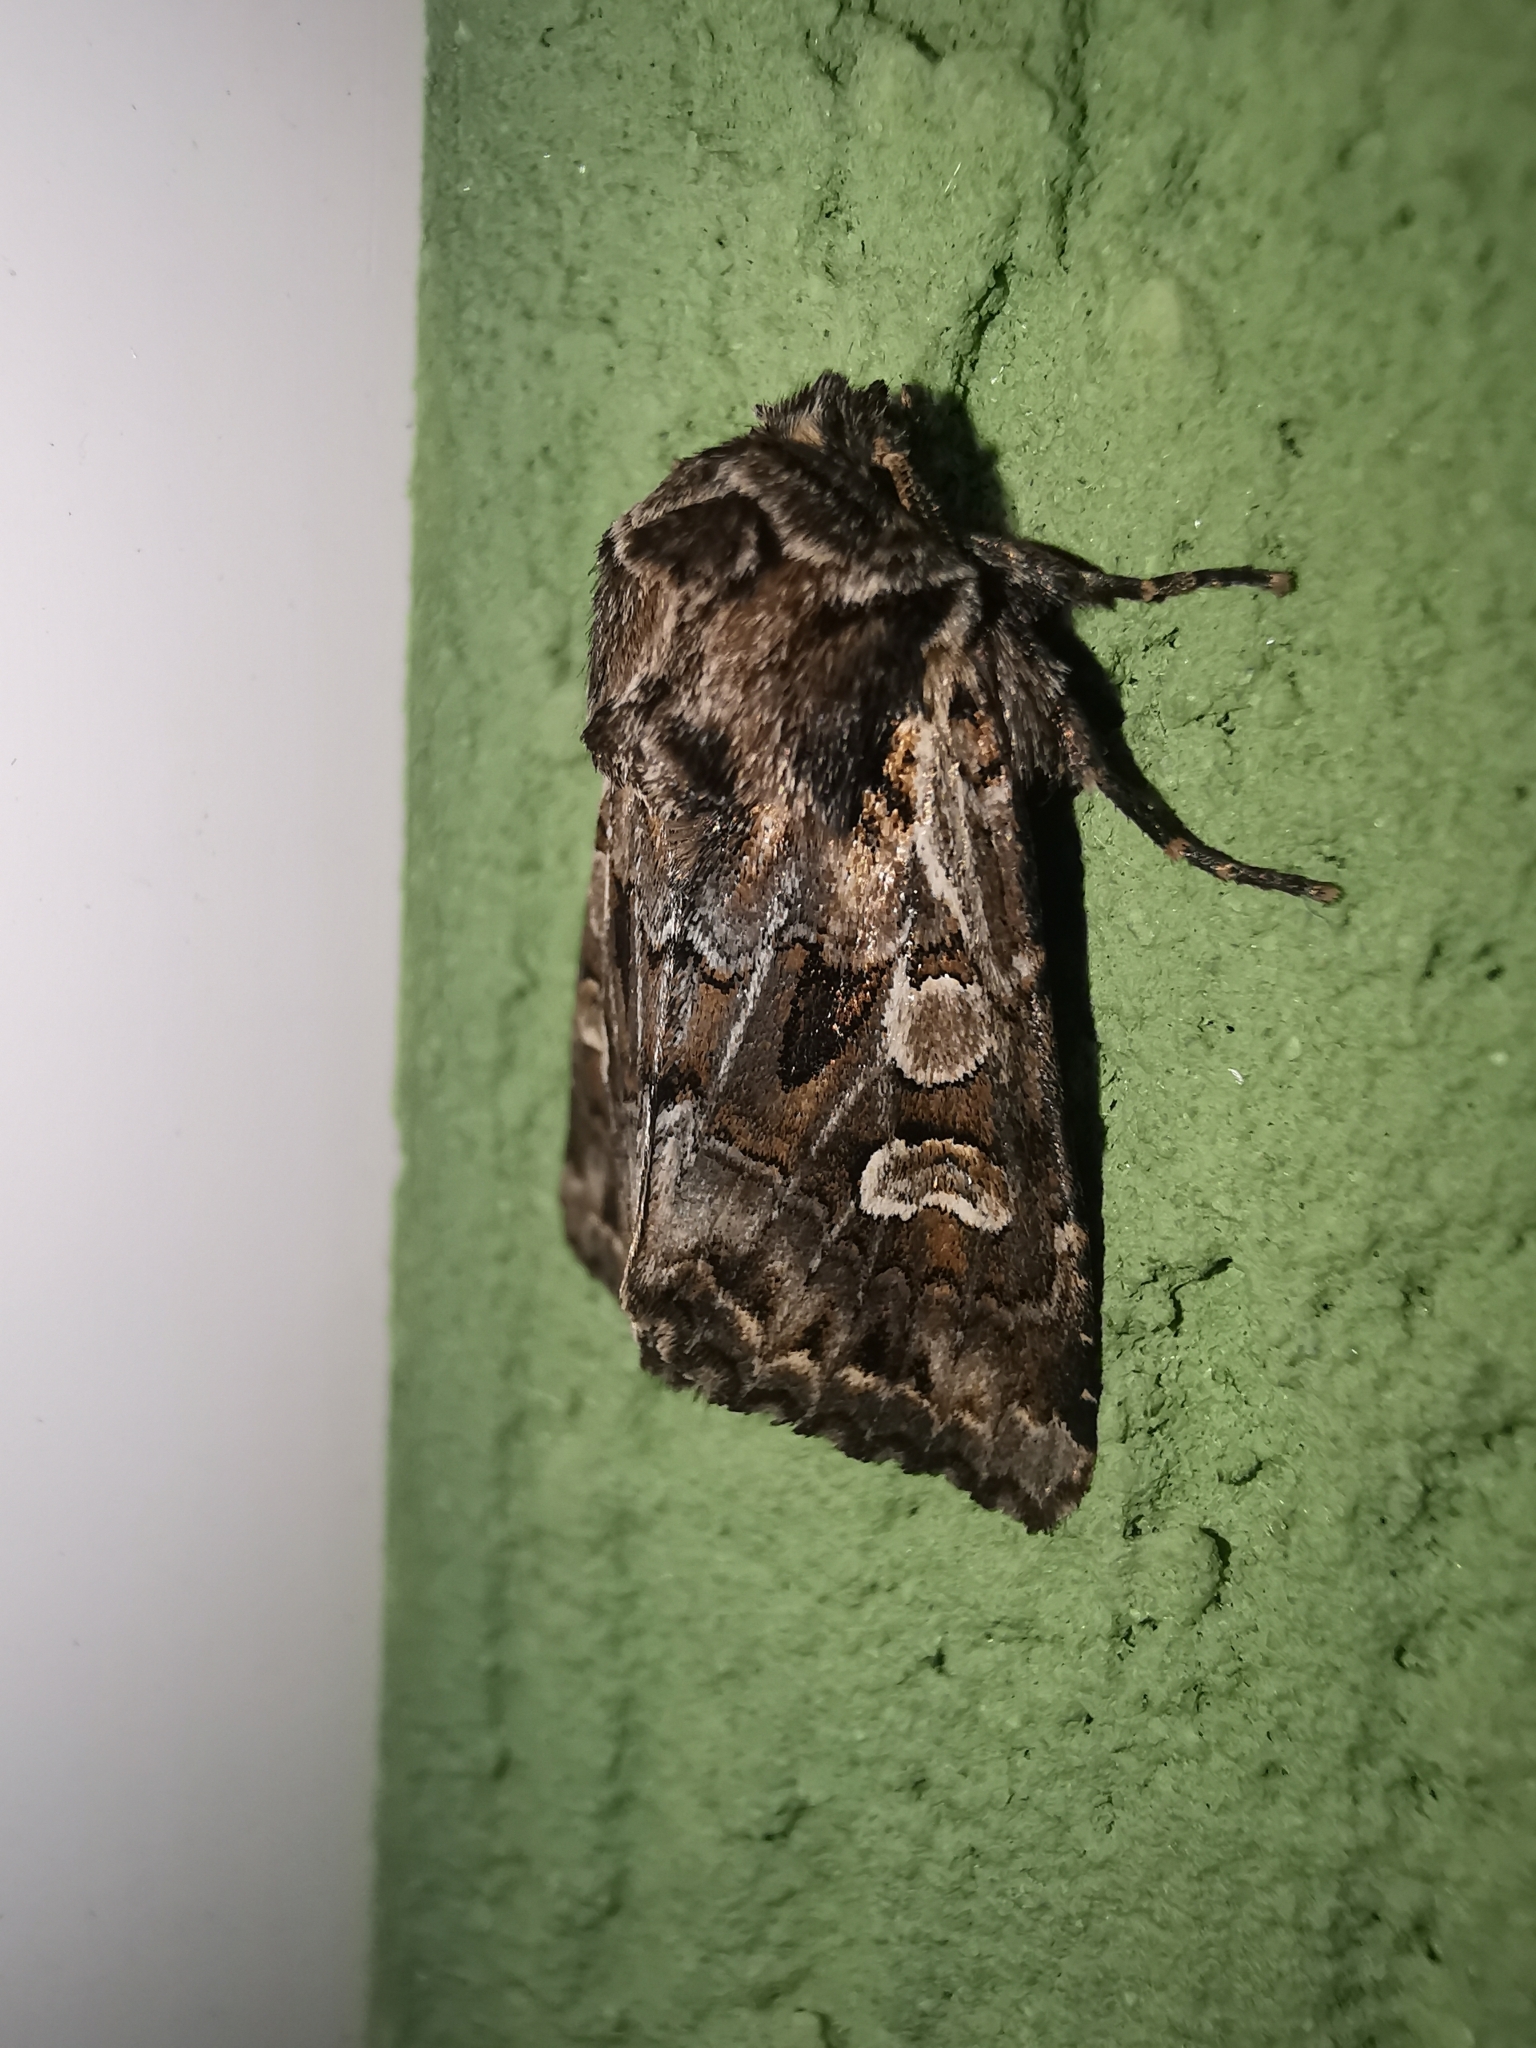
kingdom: Animalia
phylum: Arthropoda
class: Insecta
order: Lepidoptera
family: Noctuidae
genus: Pachetra
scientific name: Pachetra sagittigera
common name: Feathered ear
